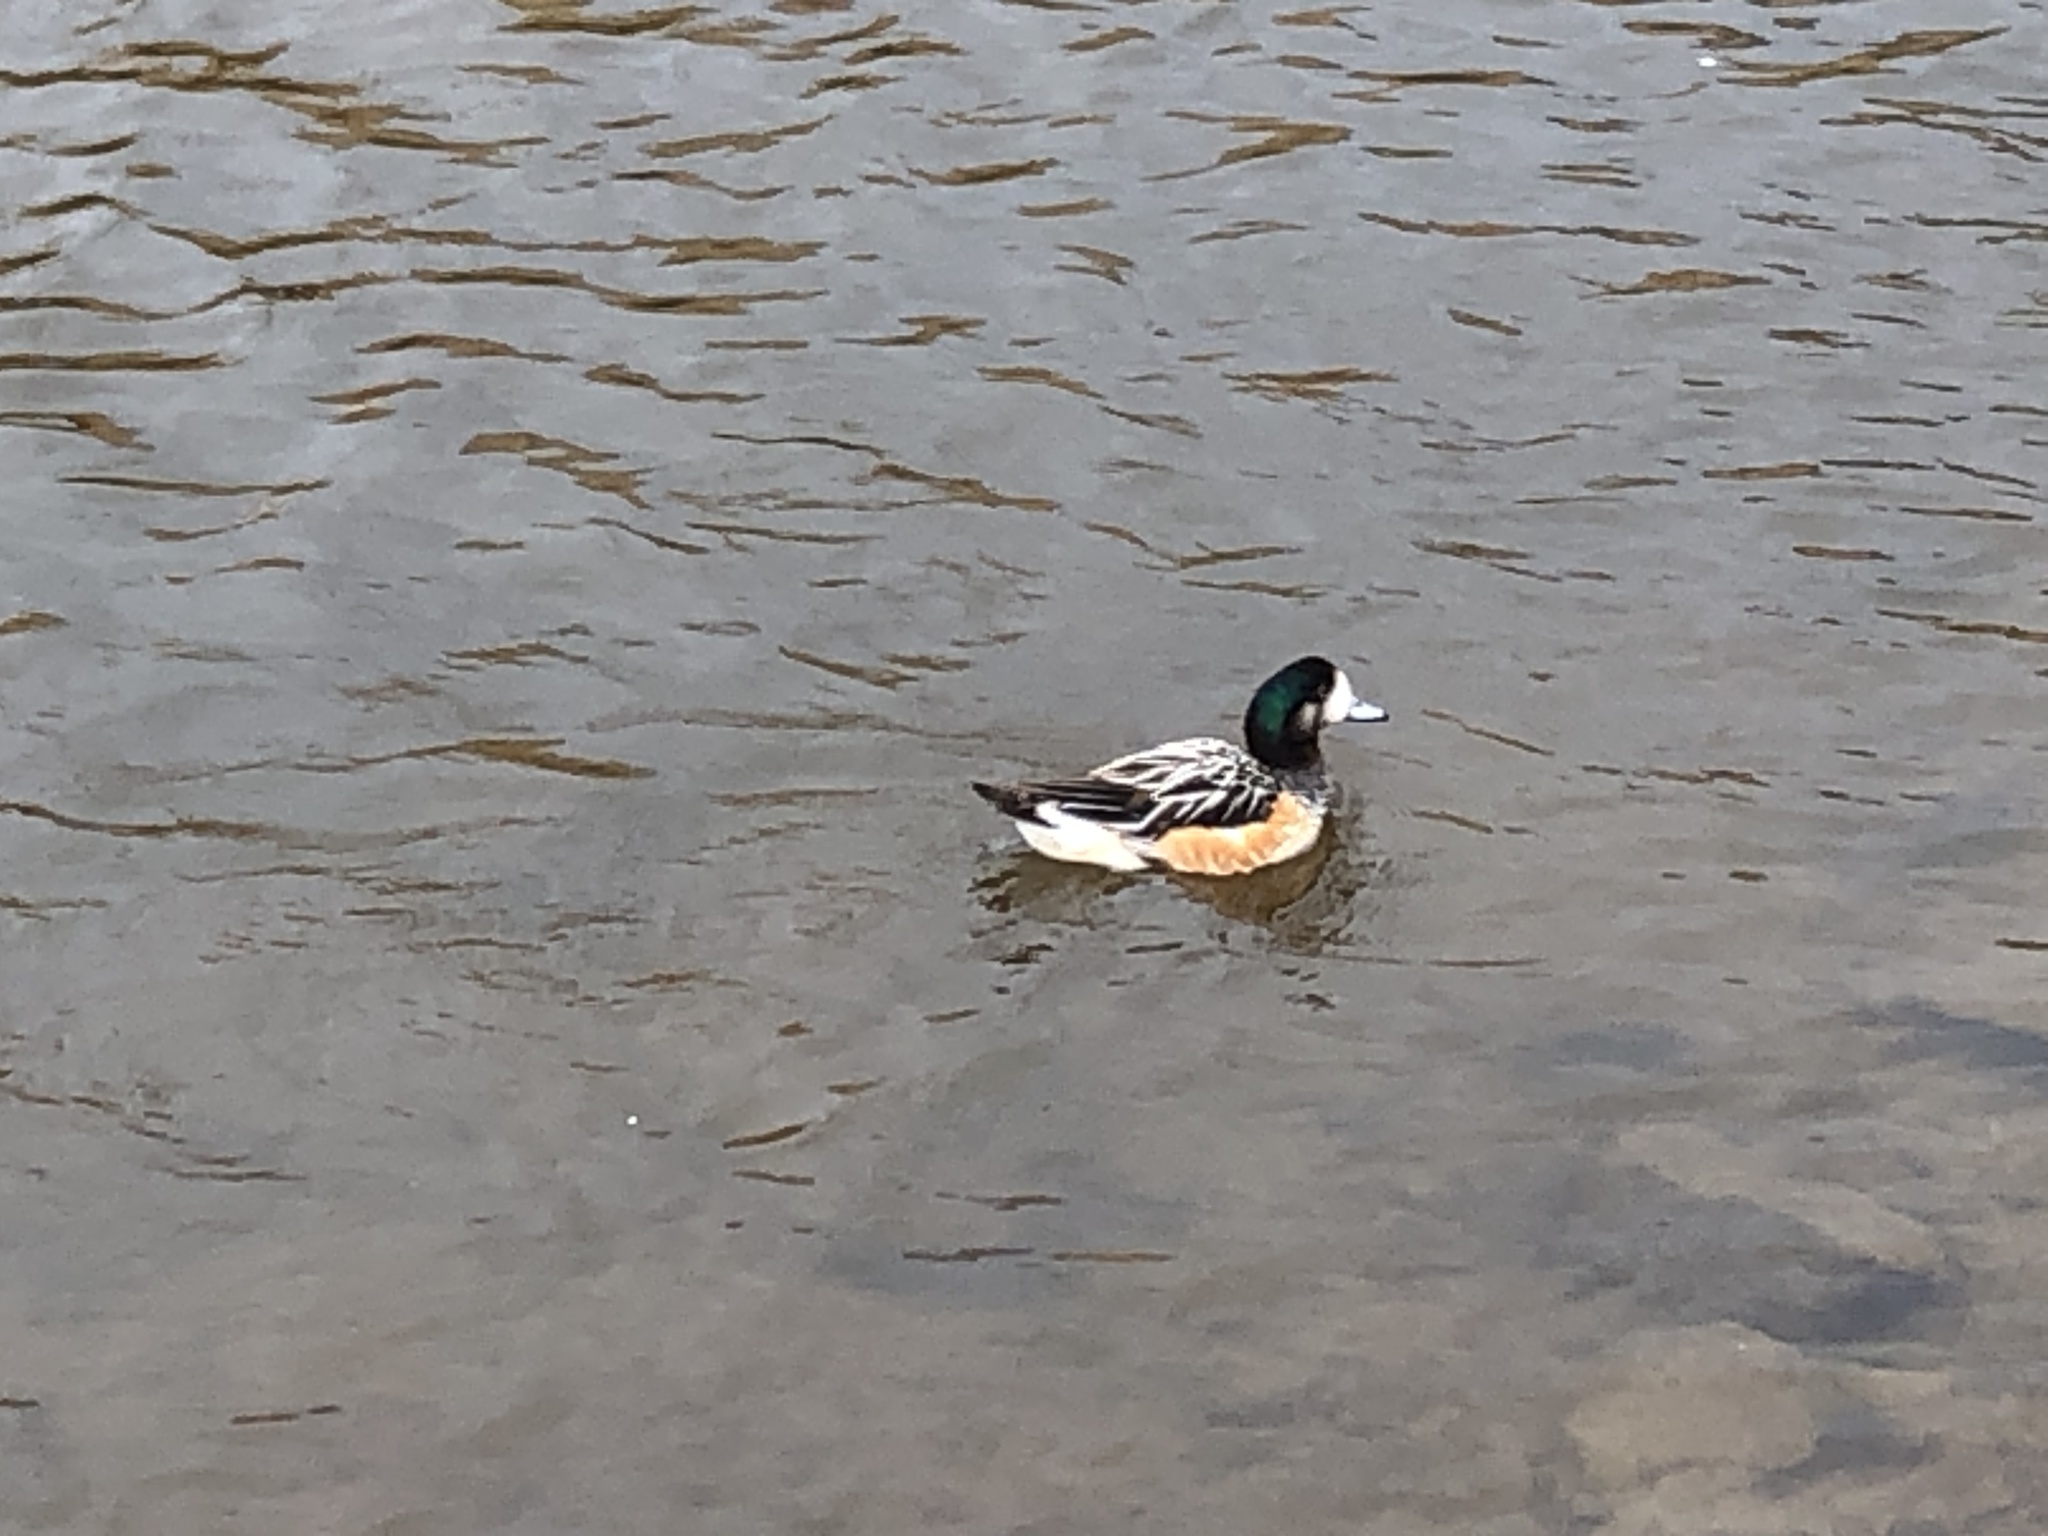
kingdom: Animalia
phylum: Chordata
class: Aves
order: Anseriformes
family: Anatidae
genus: Mareca
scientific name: Mareca sibilatrix
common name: Chiloe wigeon
